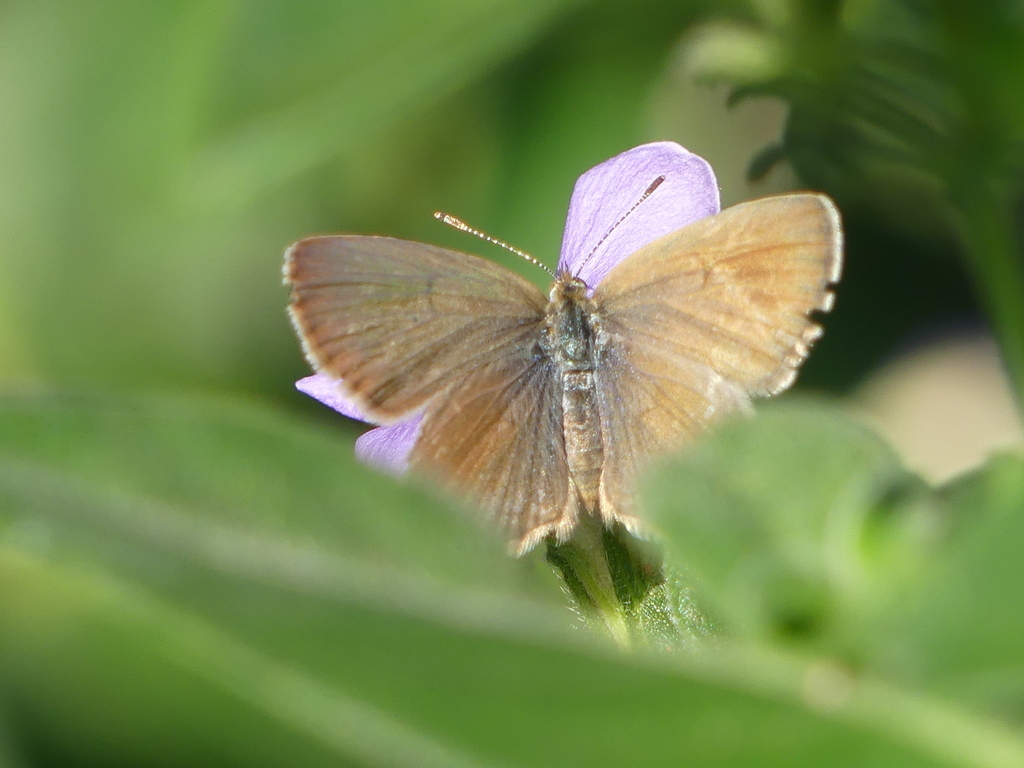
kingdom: Animalia
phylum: Arthropoda
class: Insecta
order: Lepidoptera
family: Lycaenidae
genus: Zizeeria
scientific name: Zizeeria knysna
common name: African grass blue
